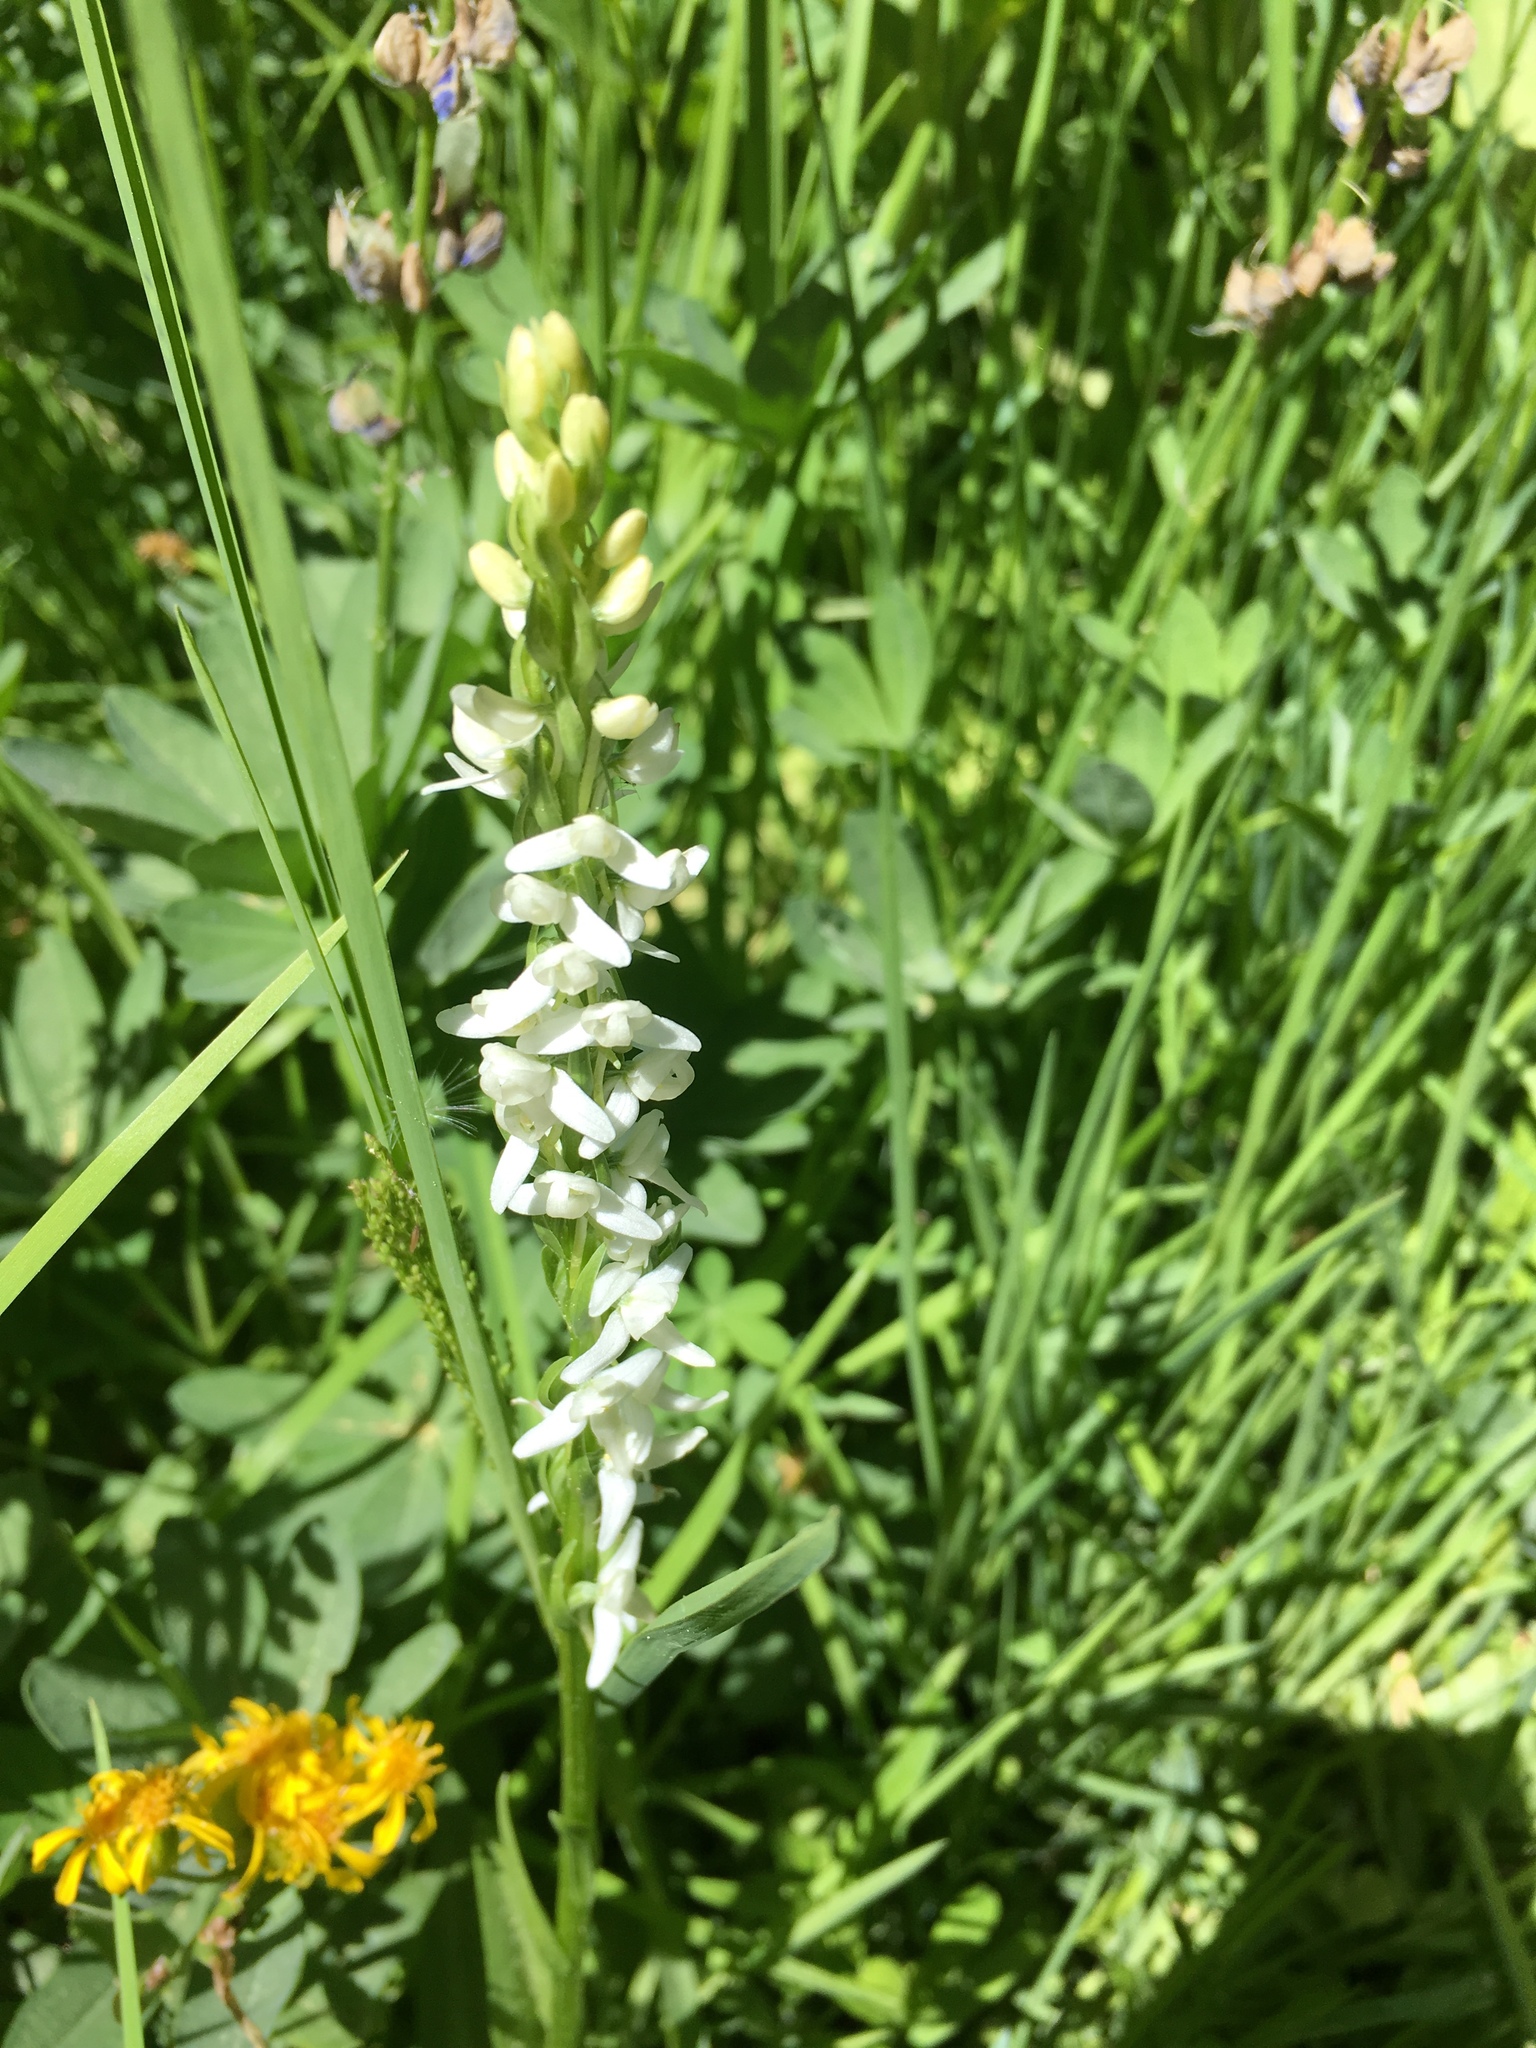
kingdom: Plantae
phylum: Tracheophyta
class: Liliopsida
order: Asparagales
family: Orchidaceae
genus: Platanthera
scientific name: Platanthera dilatata
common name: Bog candles
